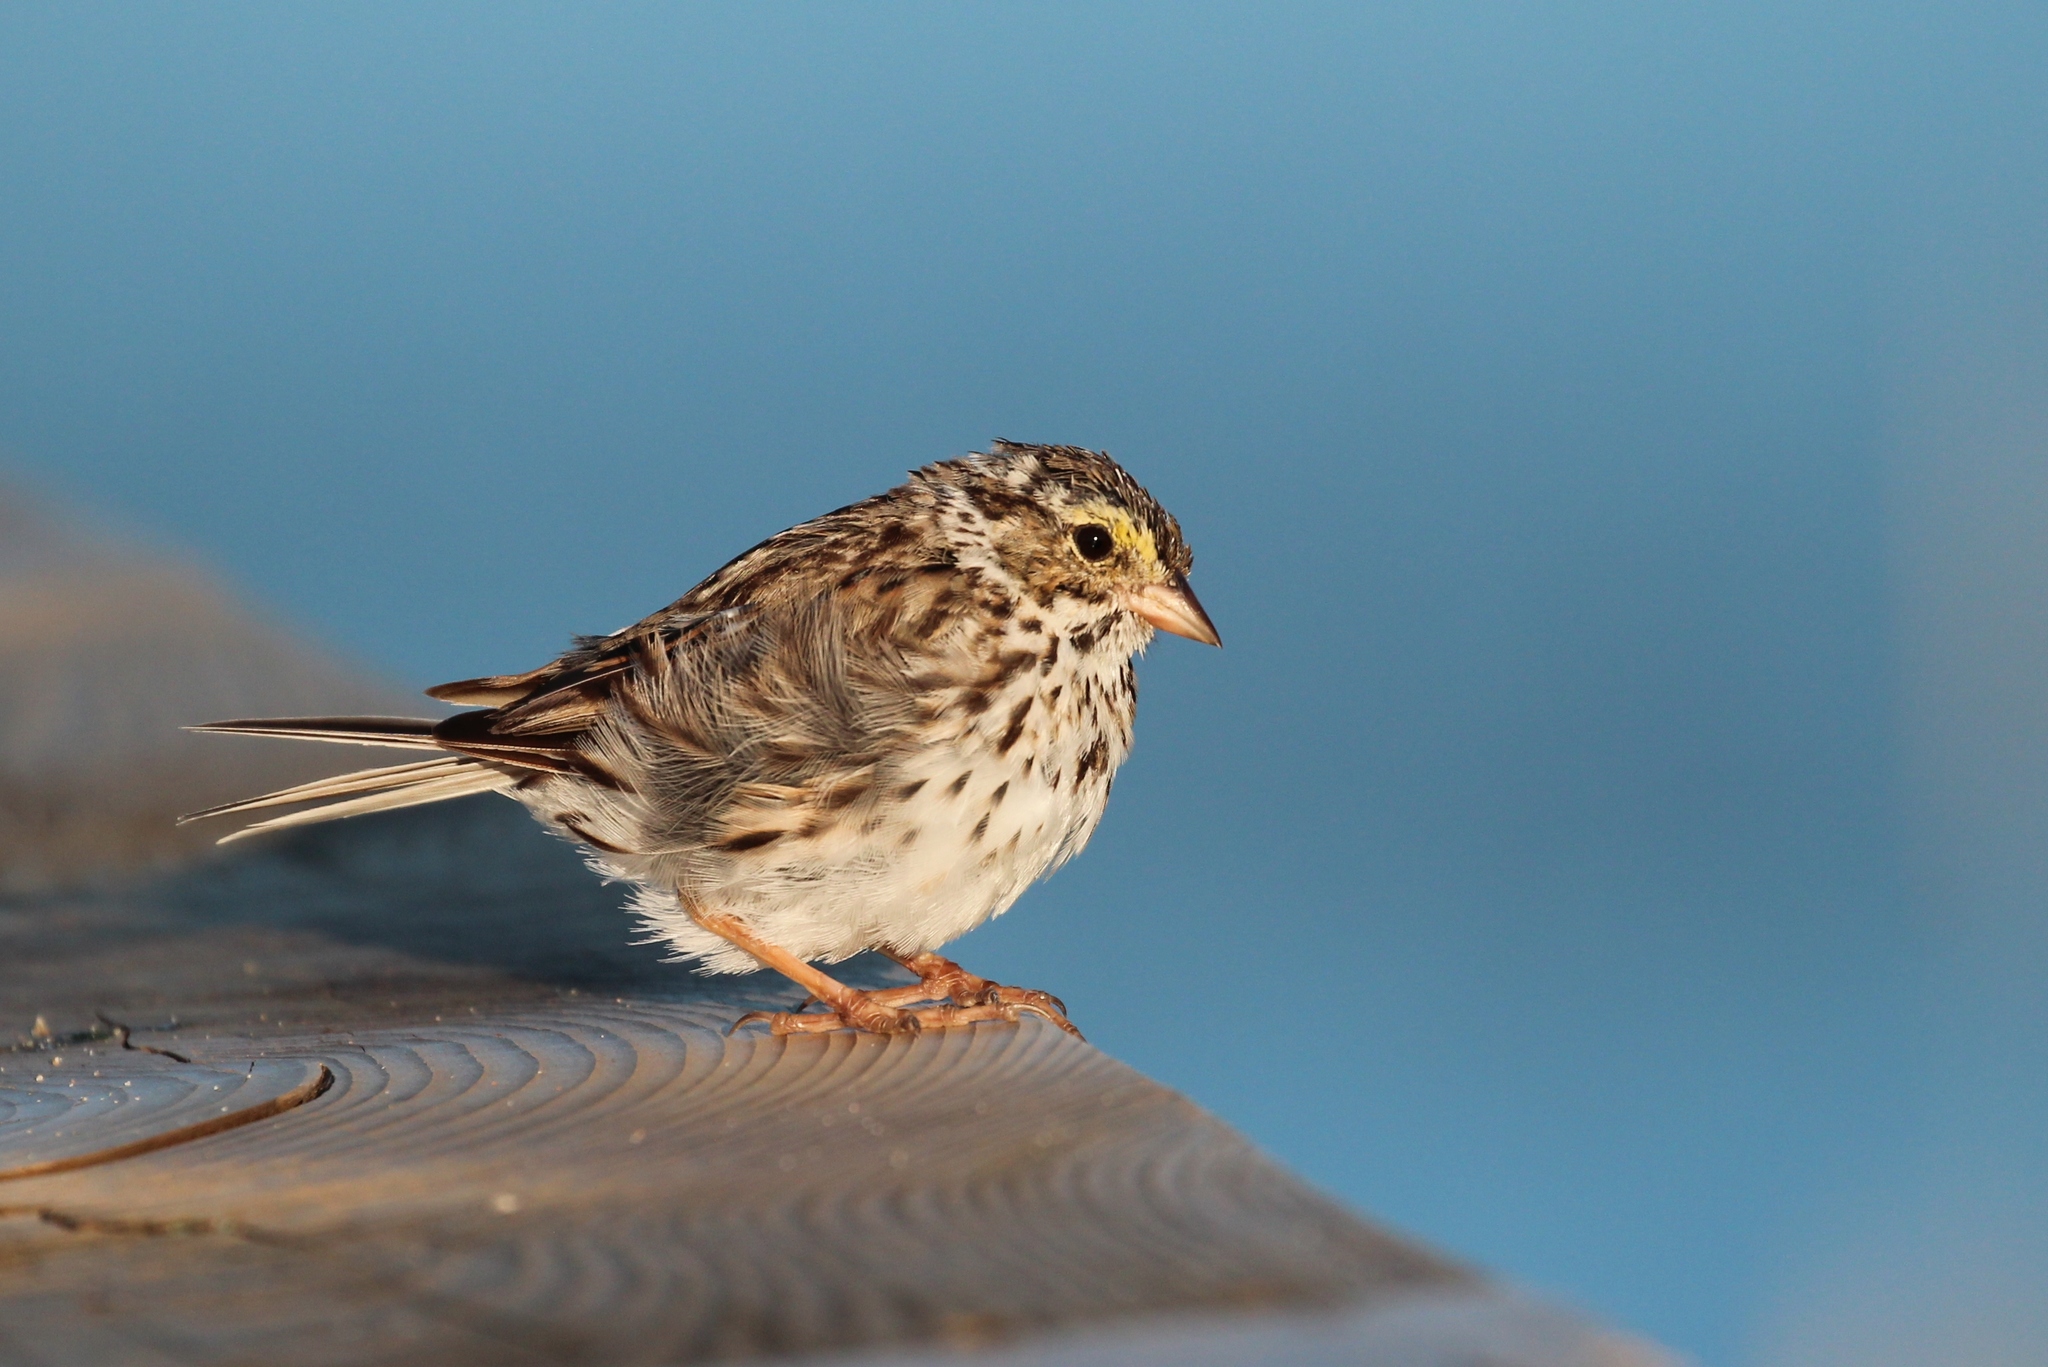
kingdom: Animalia
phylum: Chordata
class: Aves
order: Passeriformes
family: Passerellidae
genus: Passerculus
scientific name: Passerculus sandwichensis
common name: Savannah sparrow
